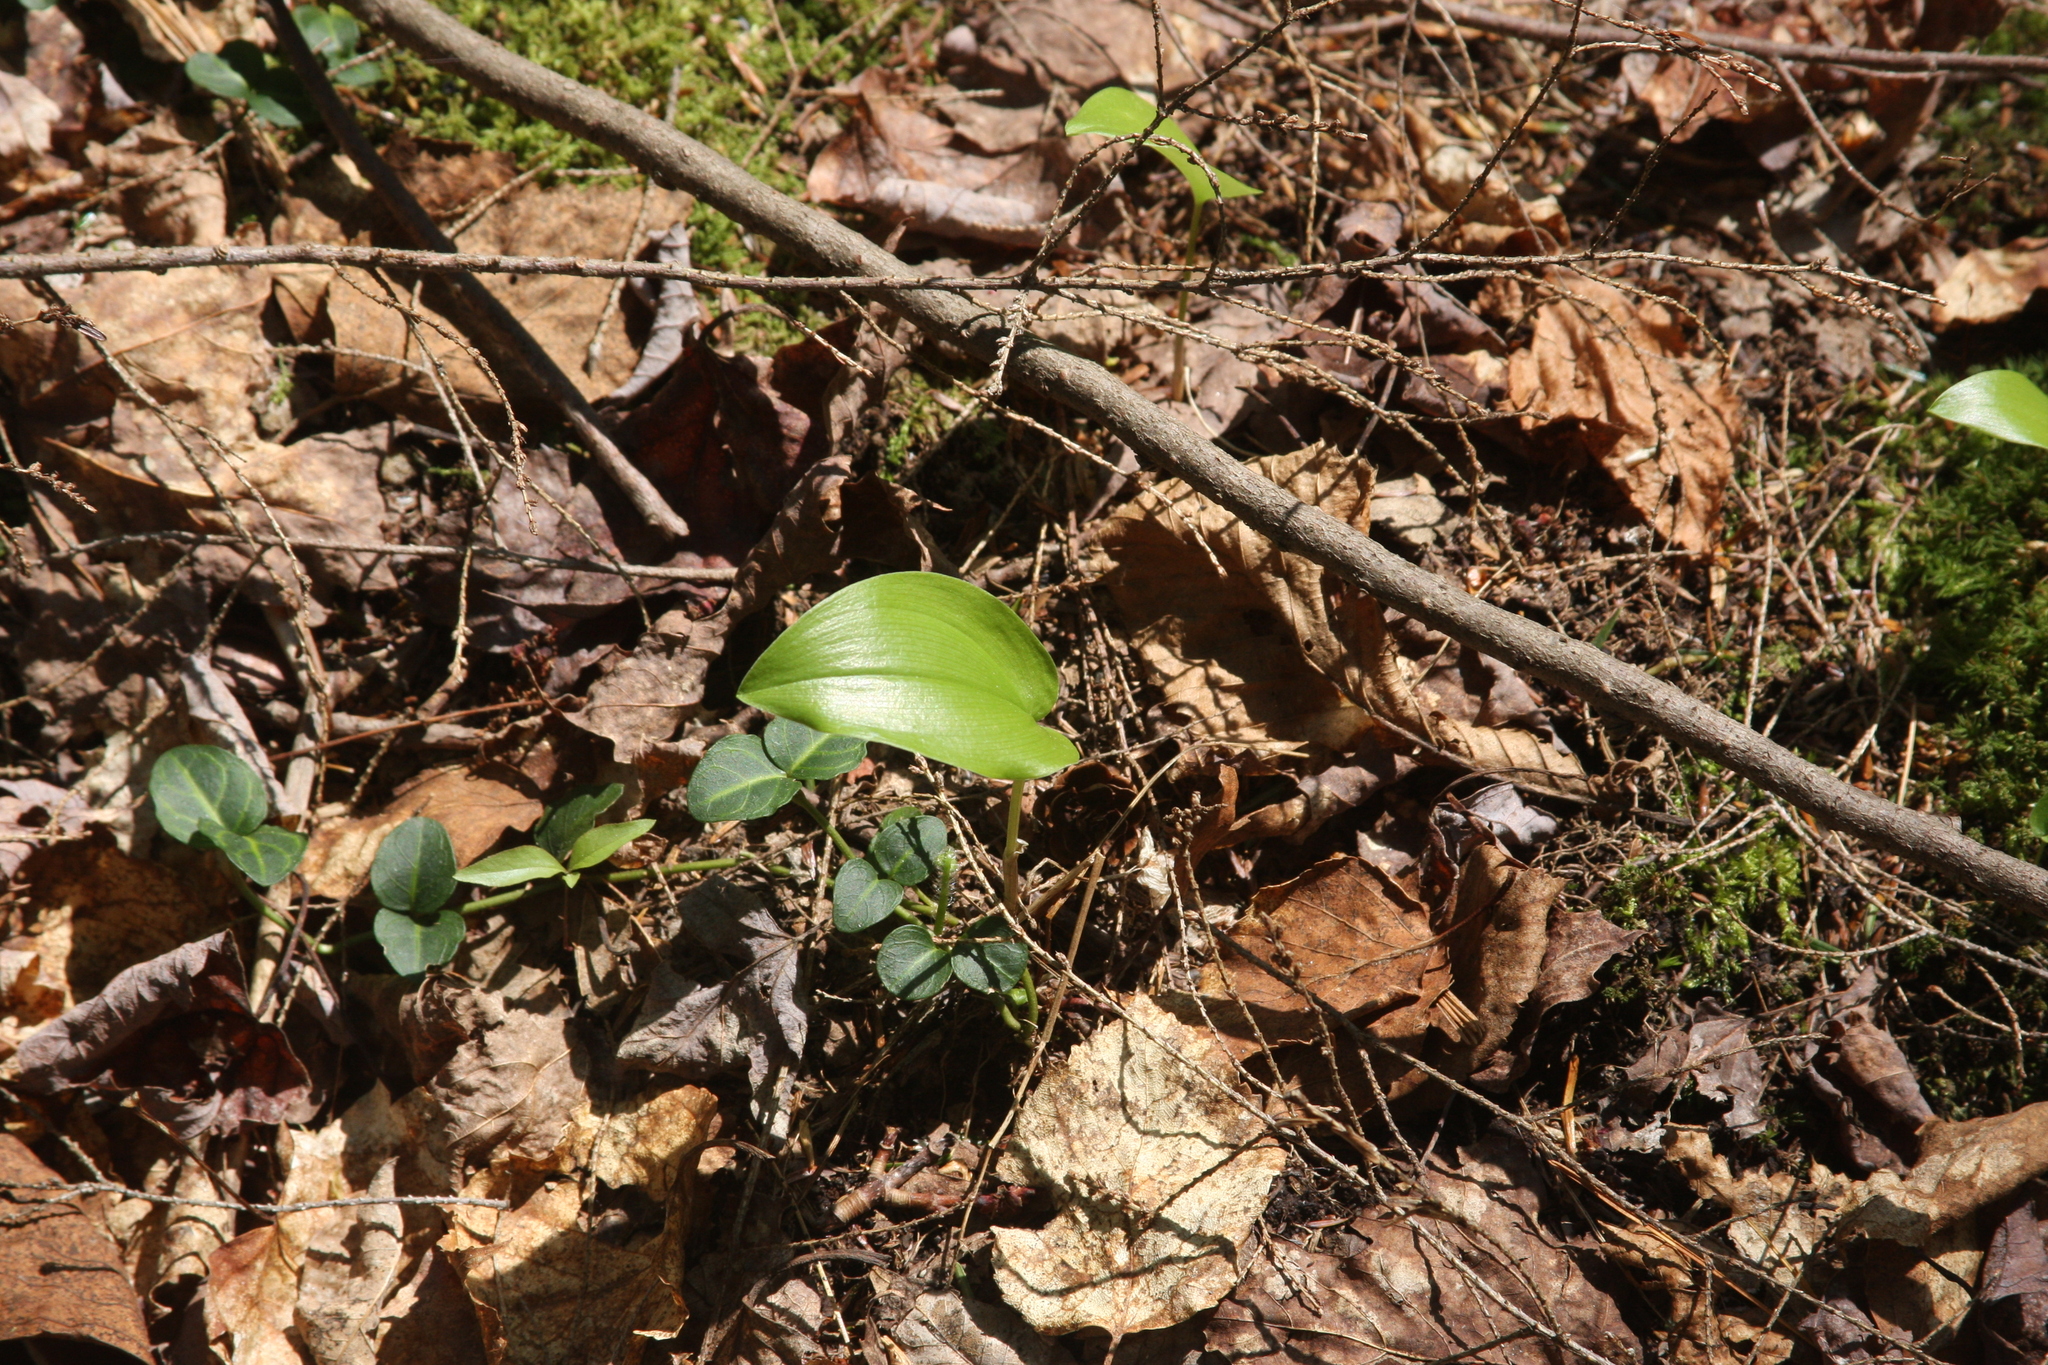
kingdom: Plantae
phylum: Tracheophyta
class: Liliopsida
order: Asparagales
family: Asparagaceae
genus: Maianthemum
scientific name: Maianthemum canadense
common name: False lily-of-the-valley
